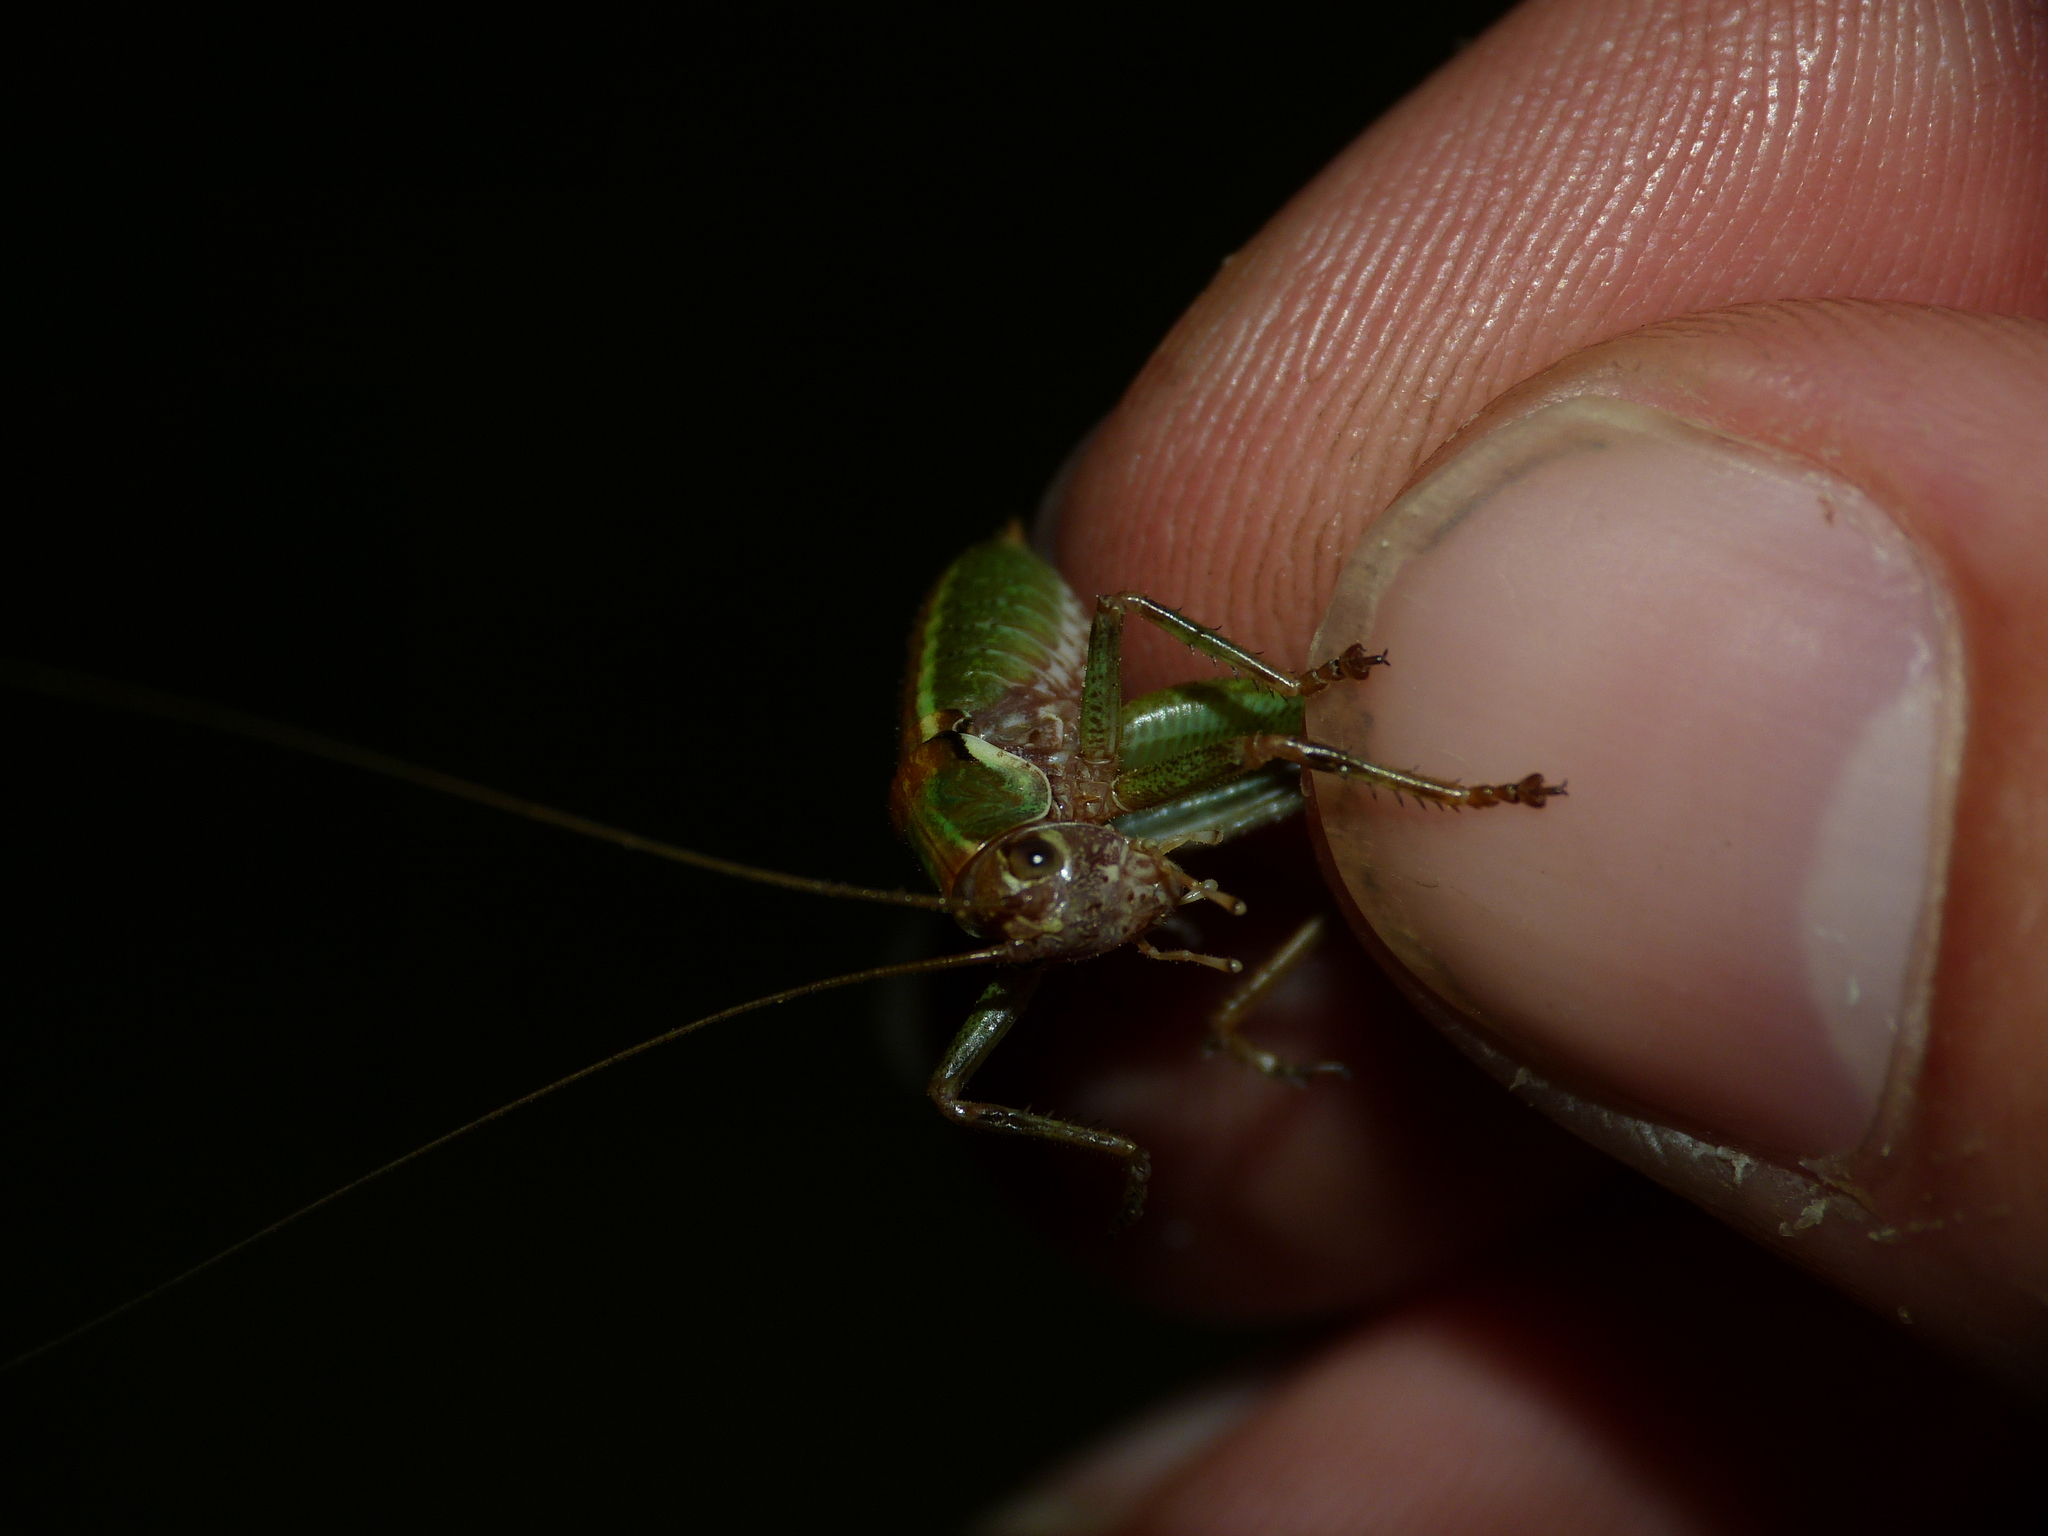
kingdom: Animalia
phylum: Arthropoda
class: Insecta
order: Orthoptera
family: Tettigoniidae
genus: Antaxius
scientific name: Antaxius chopardi
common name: Chopard's mountain bush-cricket
